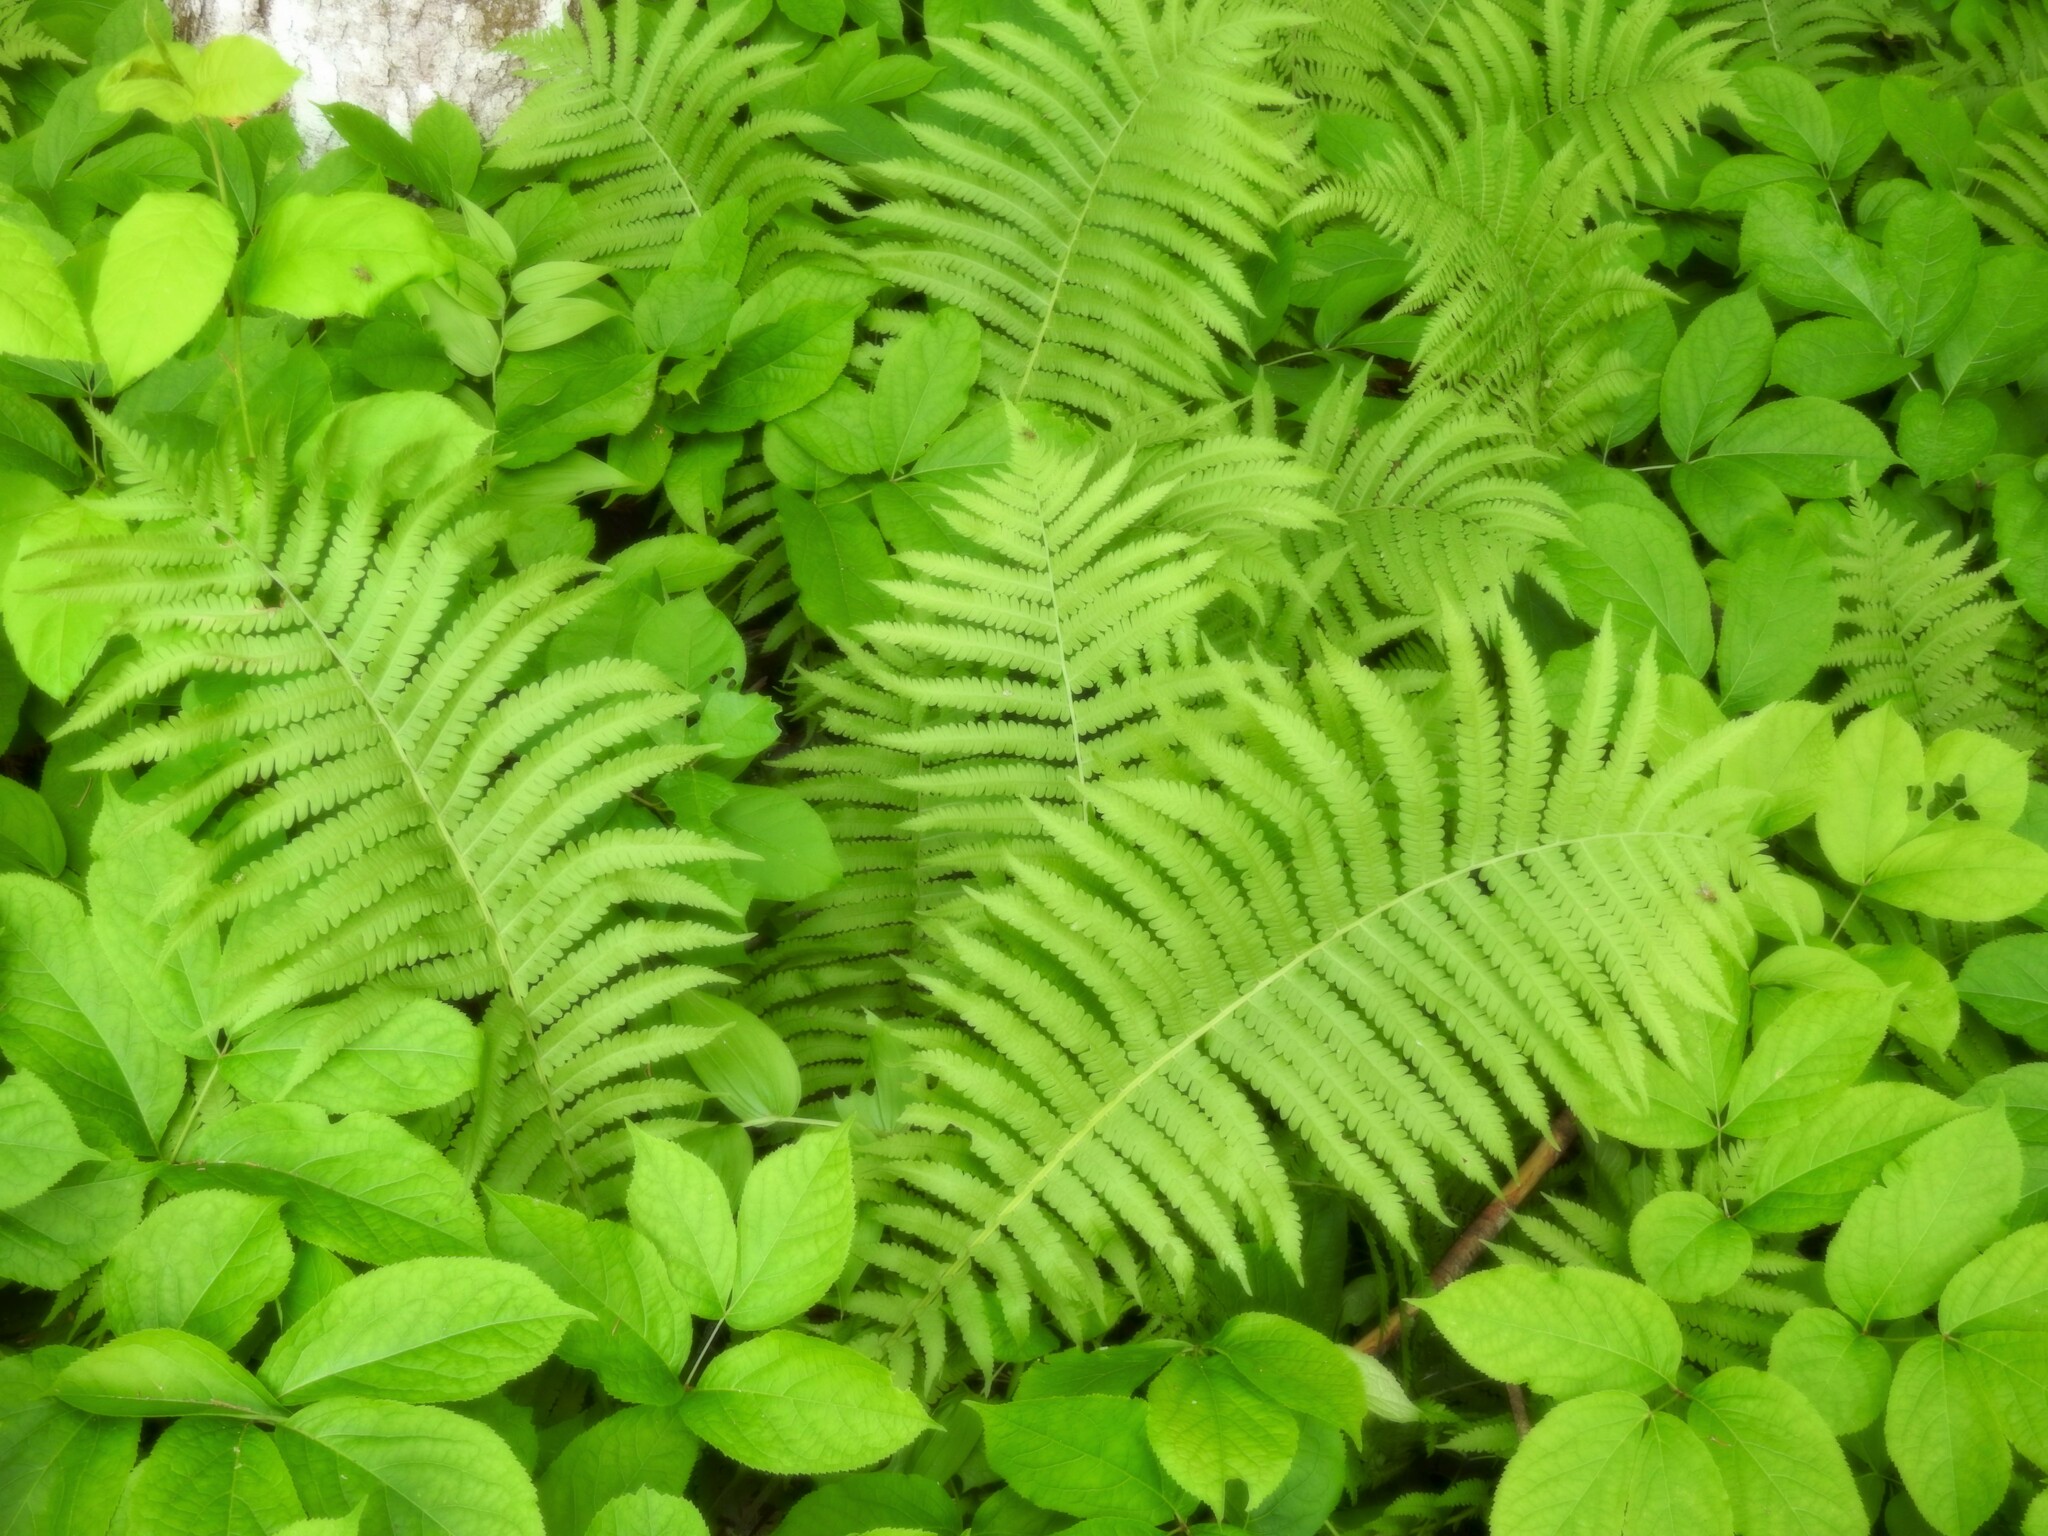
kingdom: Plantae
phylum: Tracheophyta
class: Polypodiopsida
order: Polypodiales
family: Onocleaceae
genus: Matteuccia
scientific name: Matteuccia struthiopteris
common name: Ostrich fern
